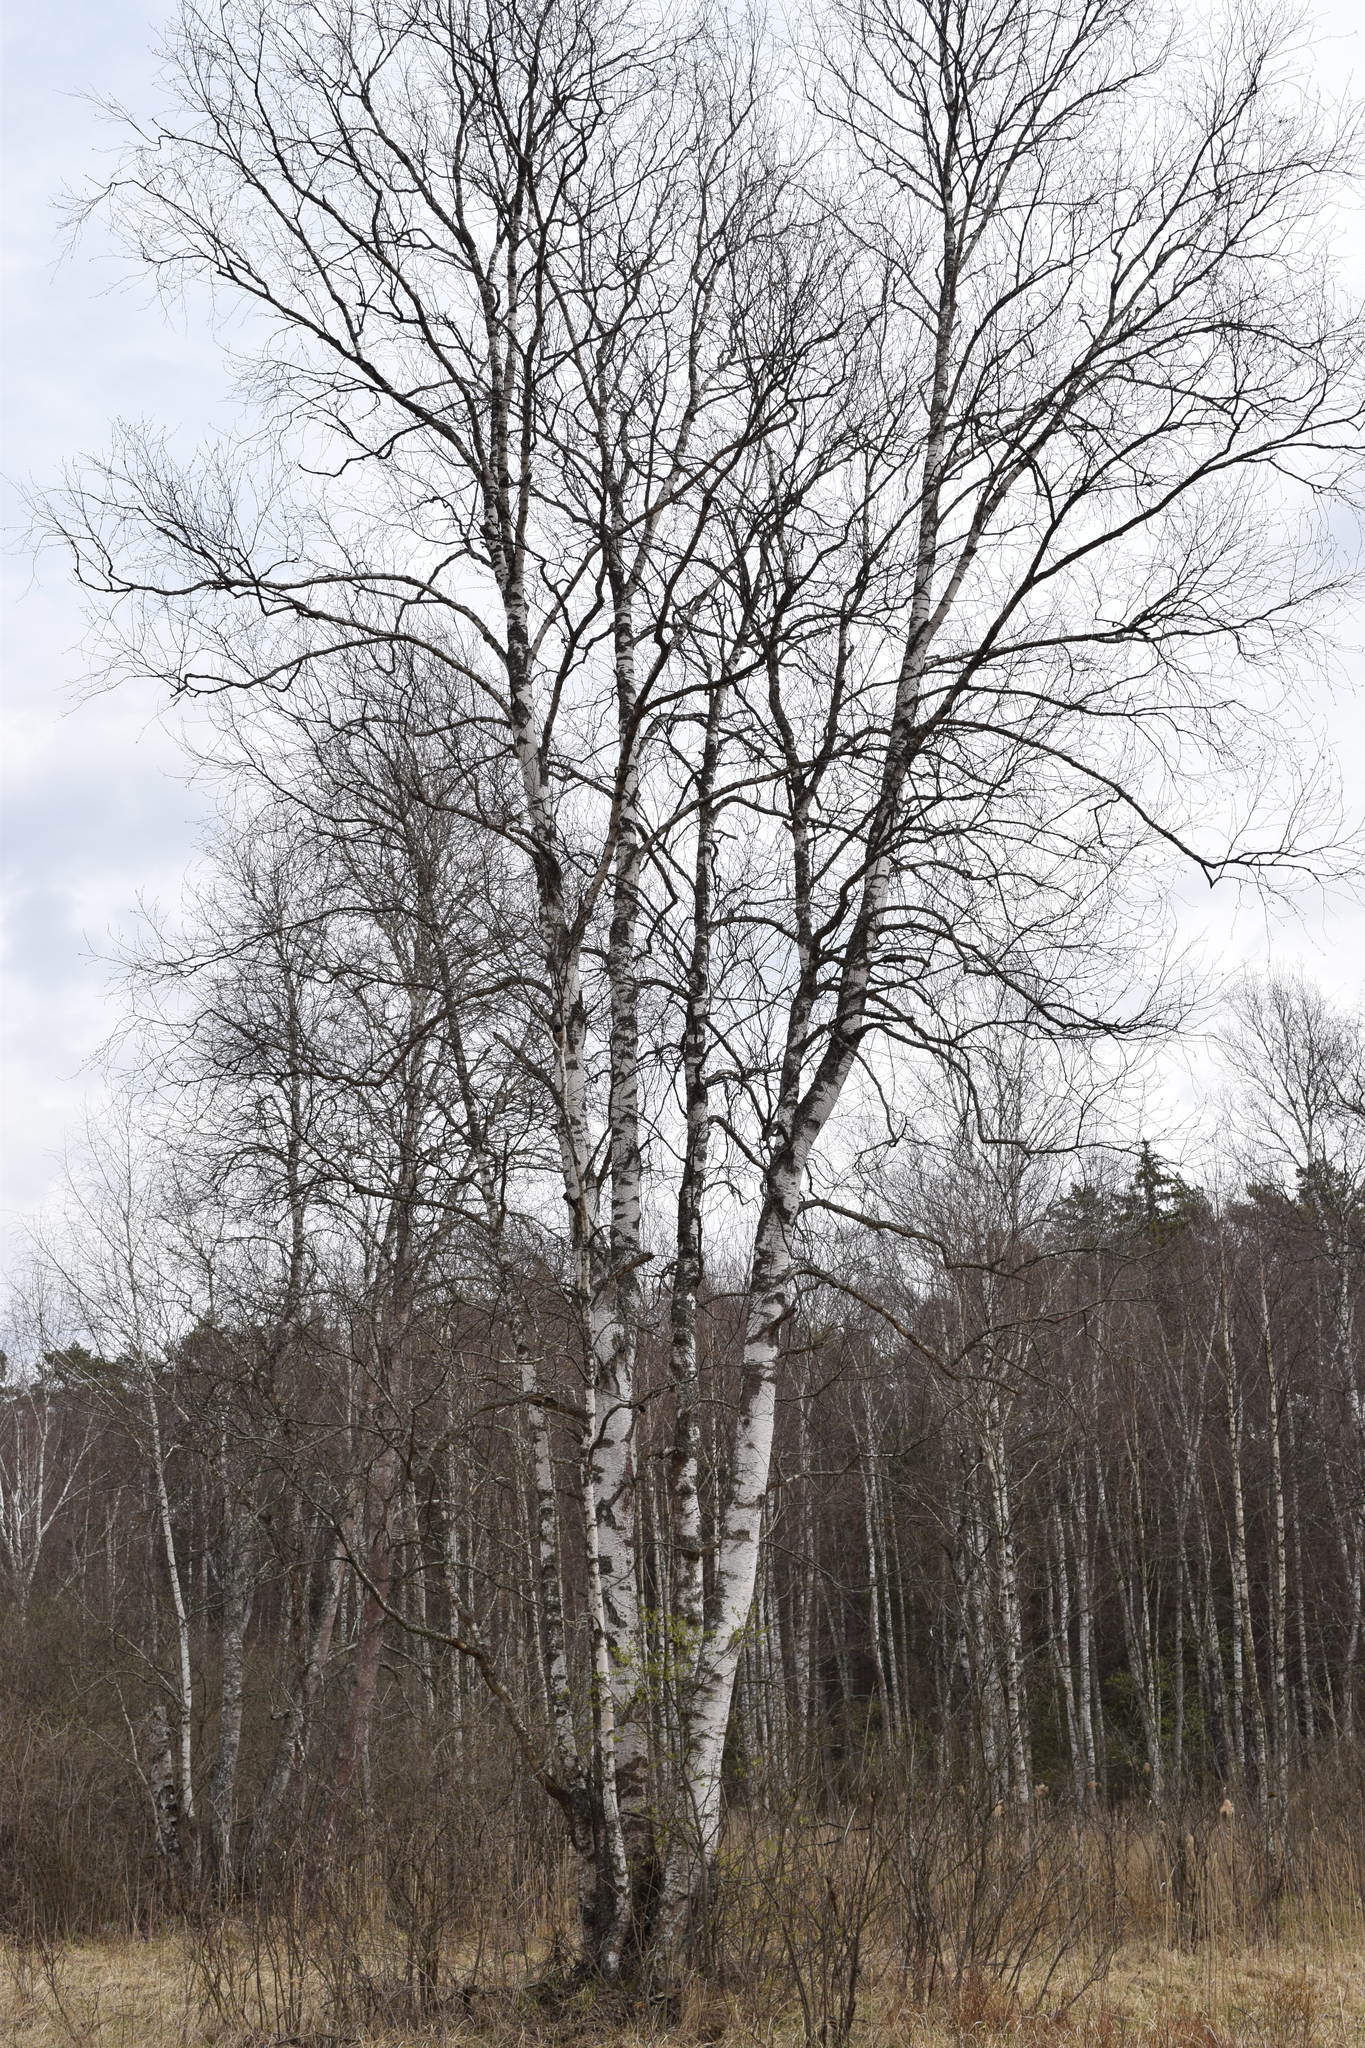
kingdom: Plantae
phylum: Tracheophyta
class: Magnoliopsida
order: Fagales
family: Betulaceae
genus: Betula
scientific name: Betula pendula
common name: Silver birch
